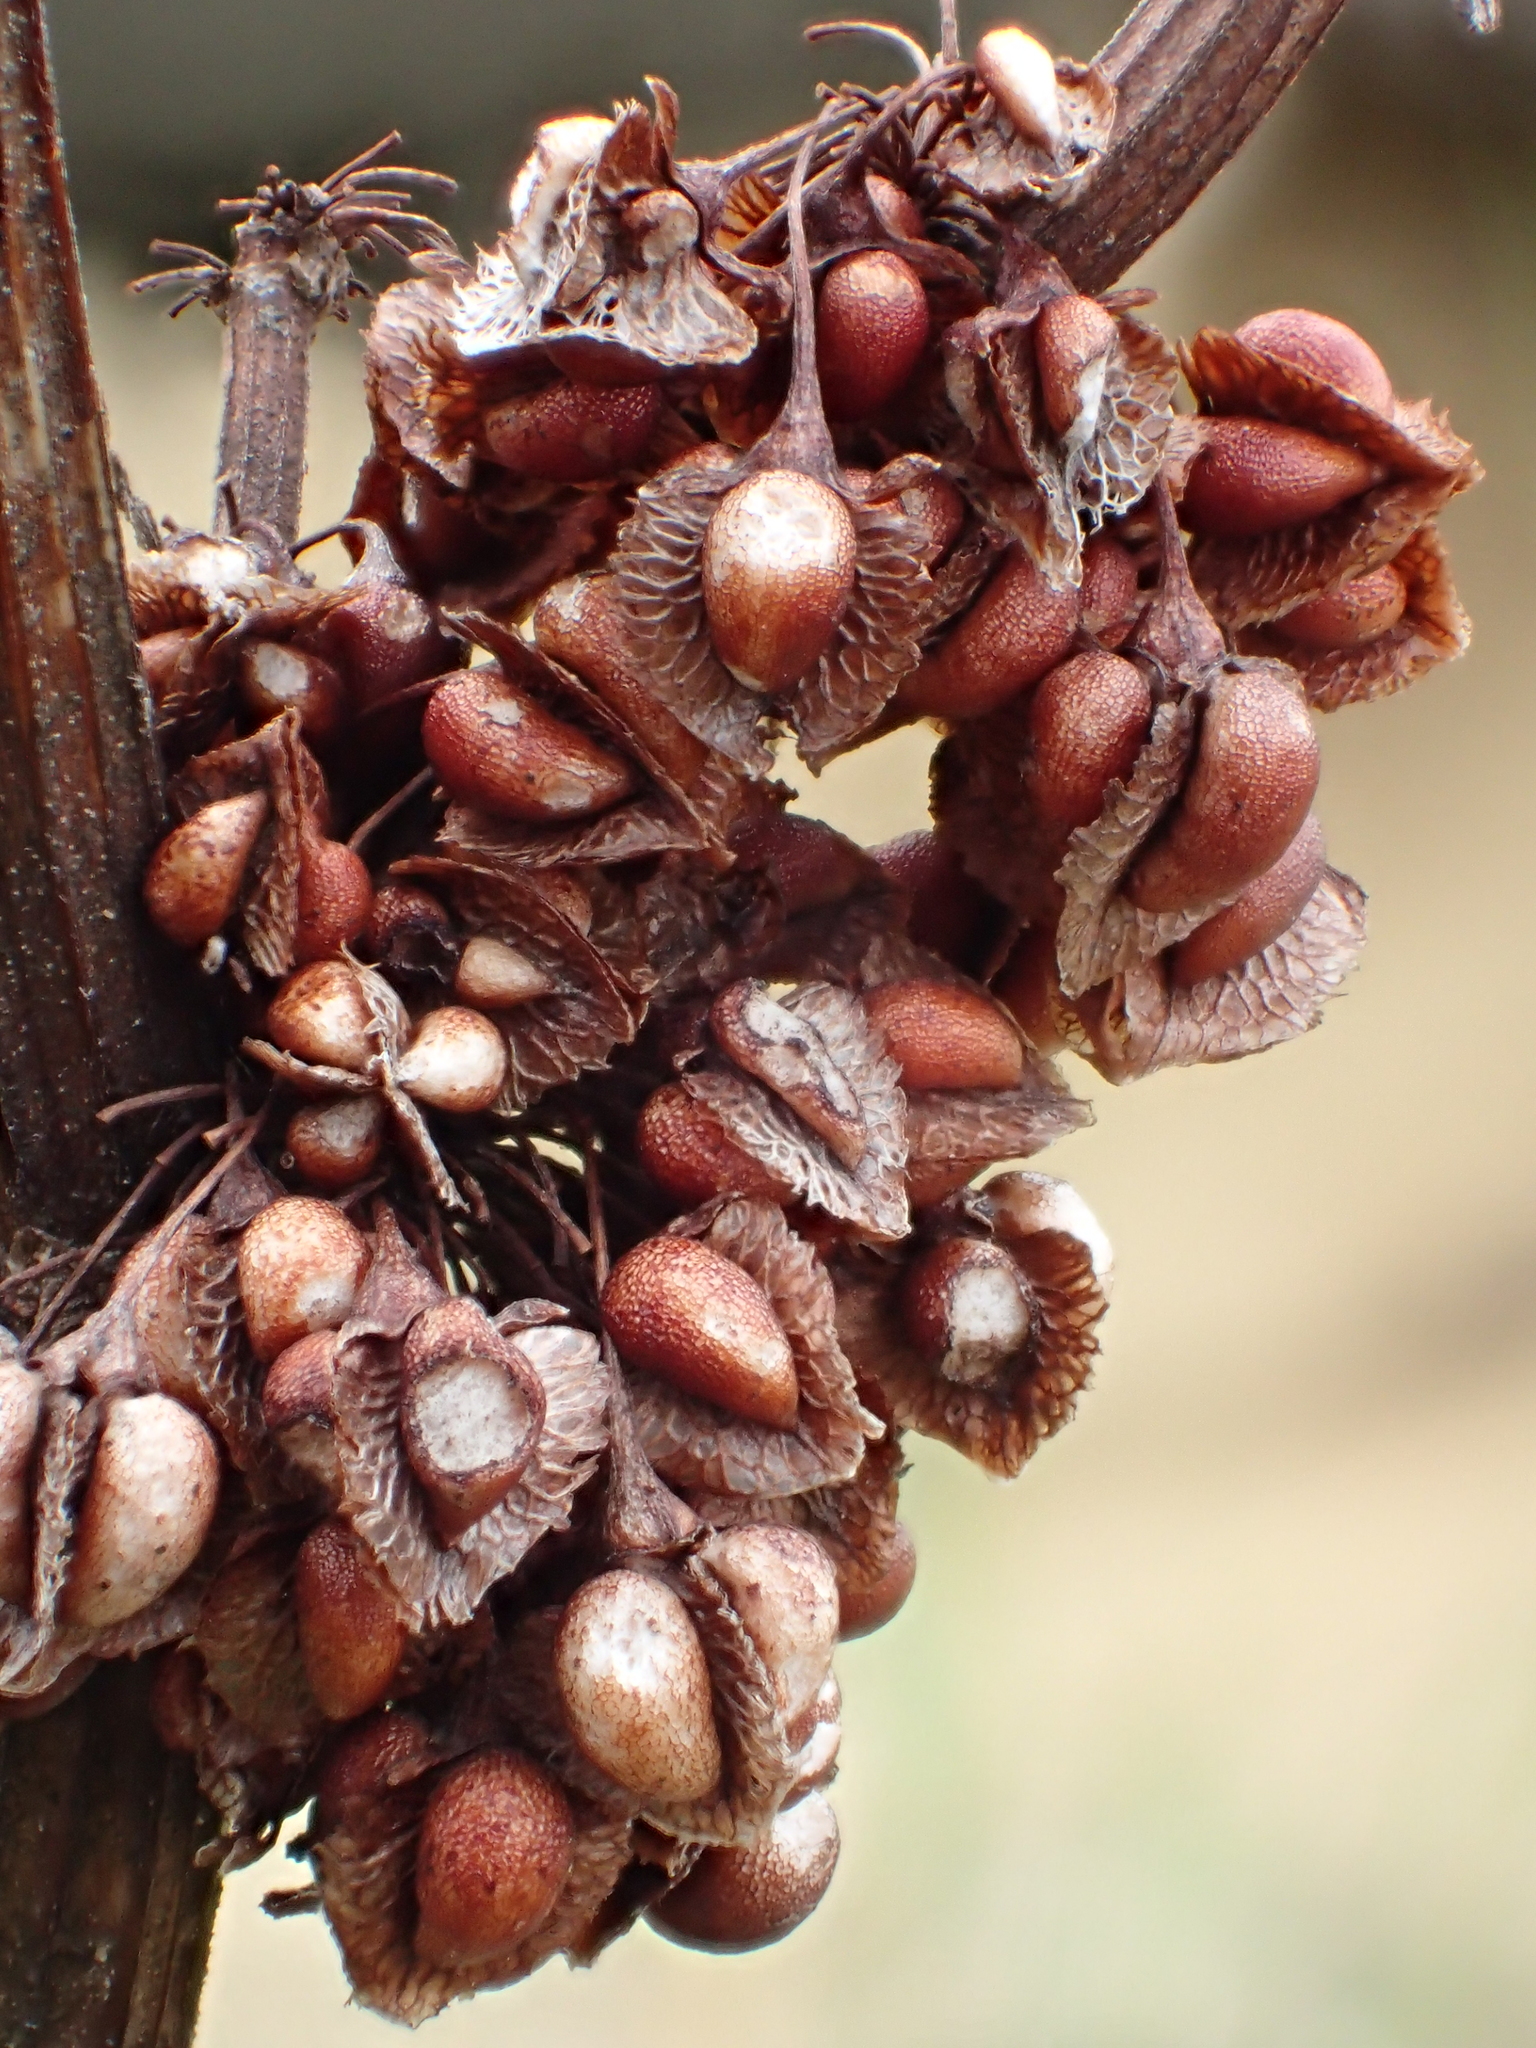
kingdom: Plantae
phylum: Tracheophyta
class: Magnoliopsida
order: Caryophyllales
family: Polygonaceae
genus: Rumex
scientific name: Rumex japonicus
